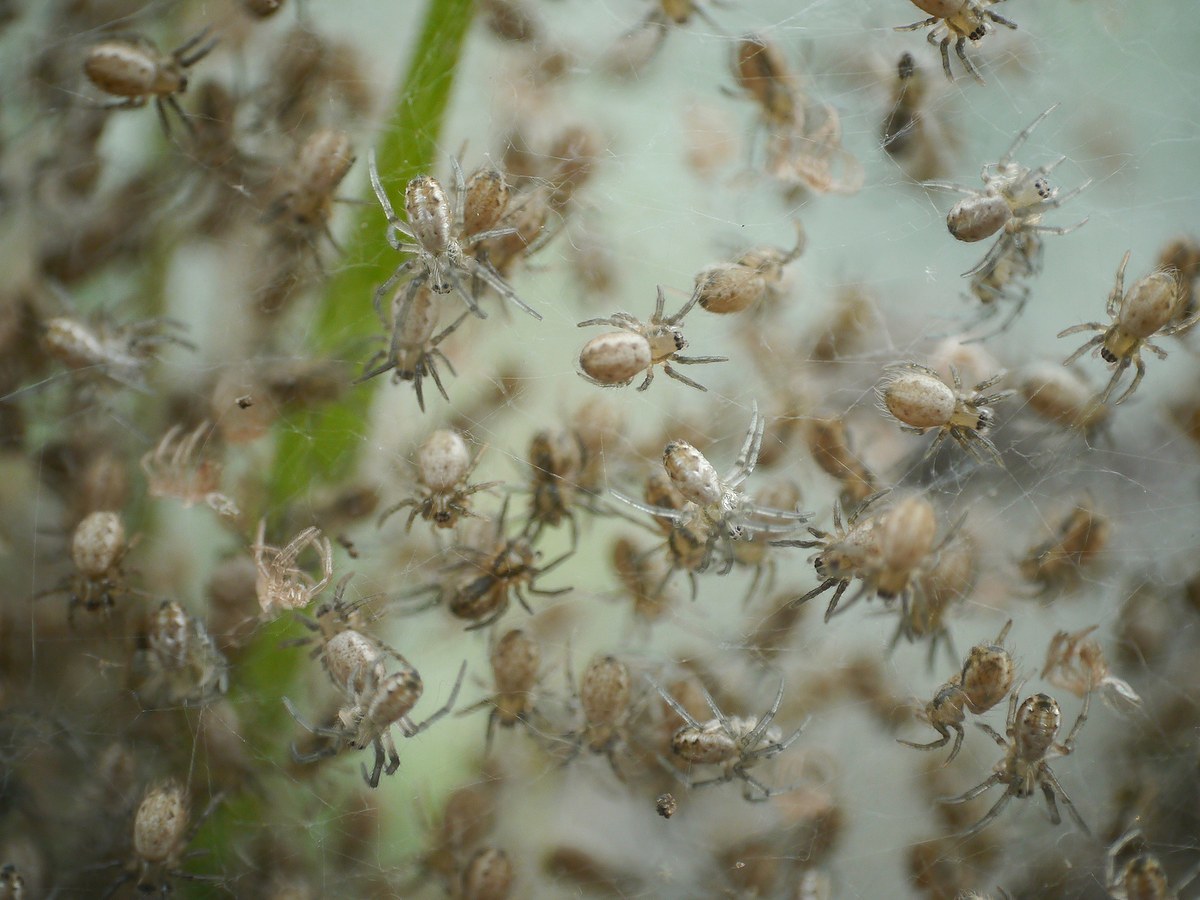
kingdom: Animalia
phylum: Arthropoda
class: Arachnida
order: Araneae
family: Araneidae
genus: Argiope
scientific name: Argiope bruennichi
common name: Wasp spider
